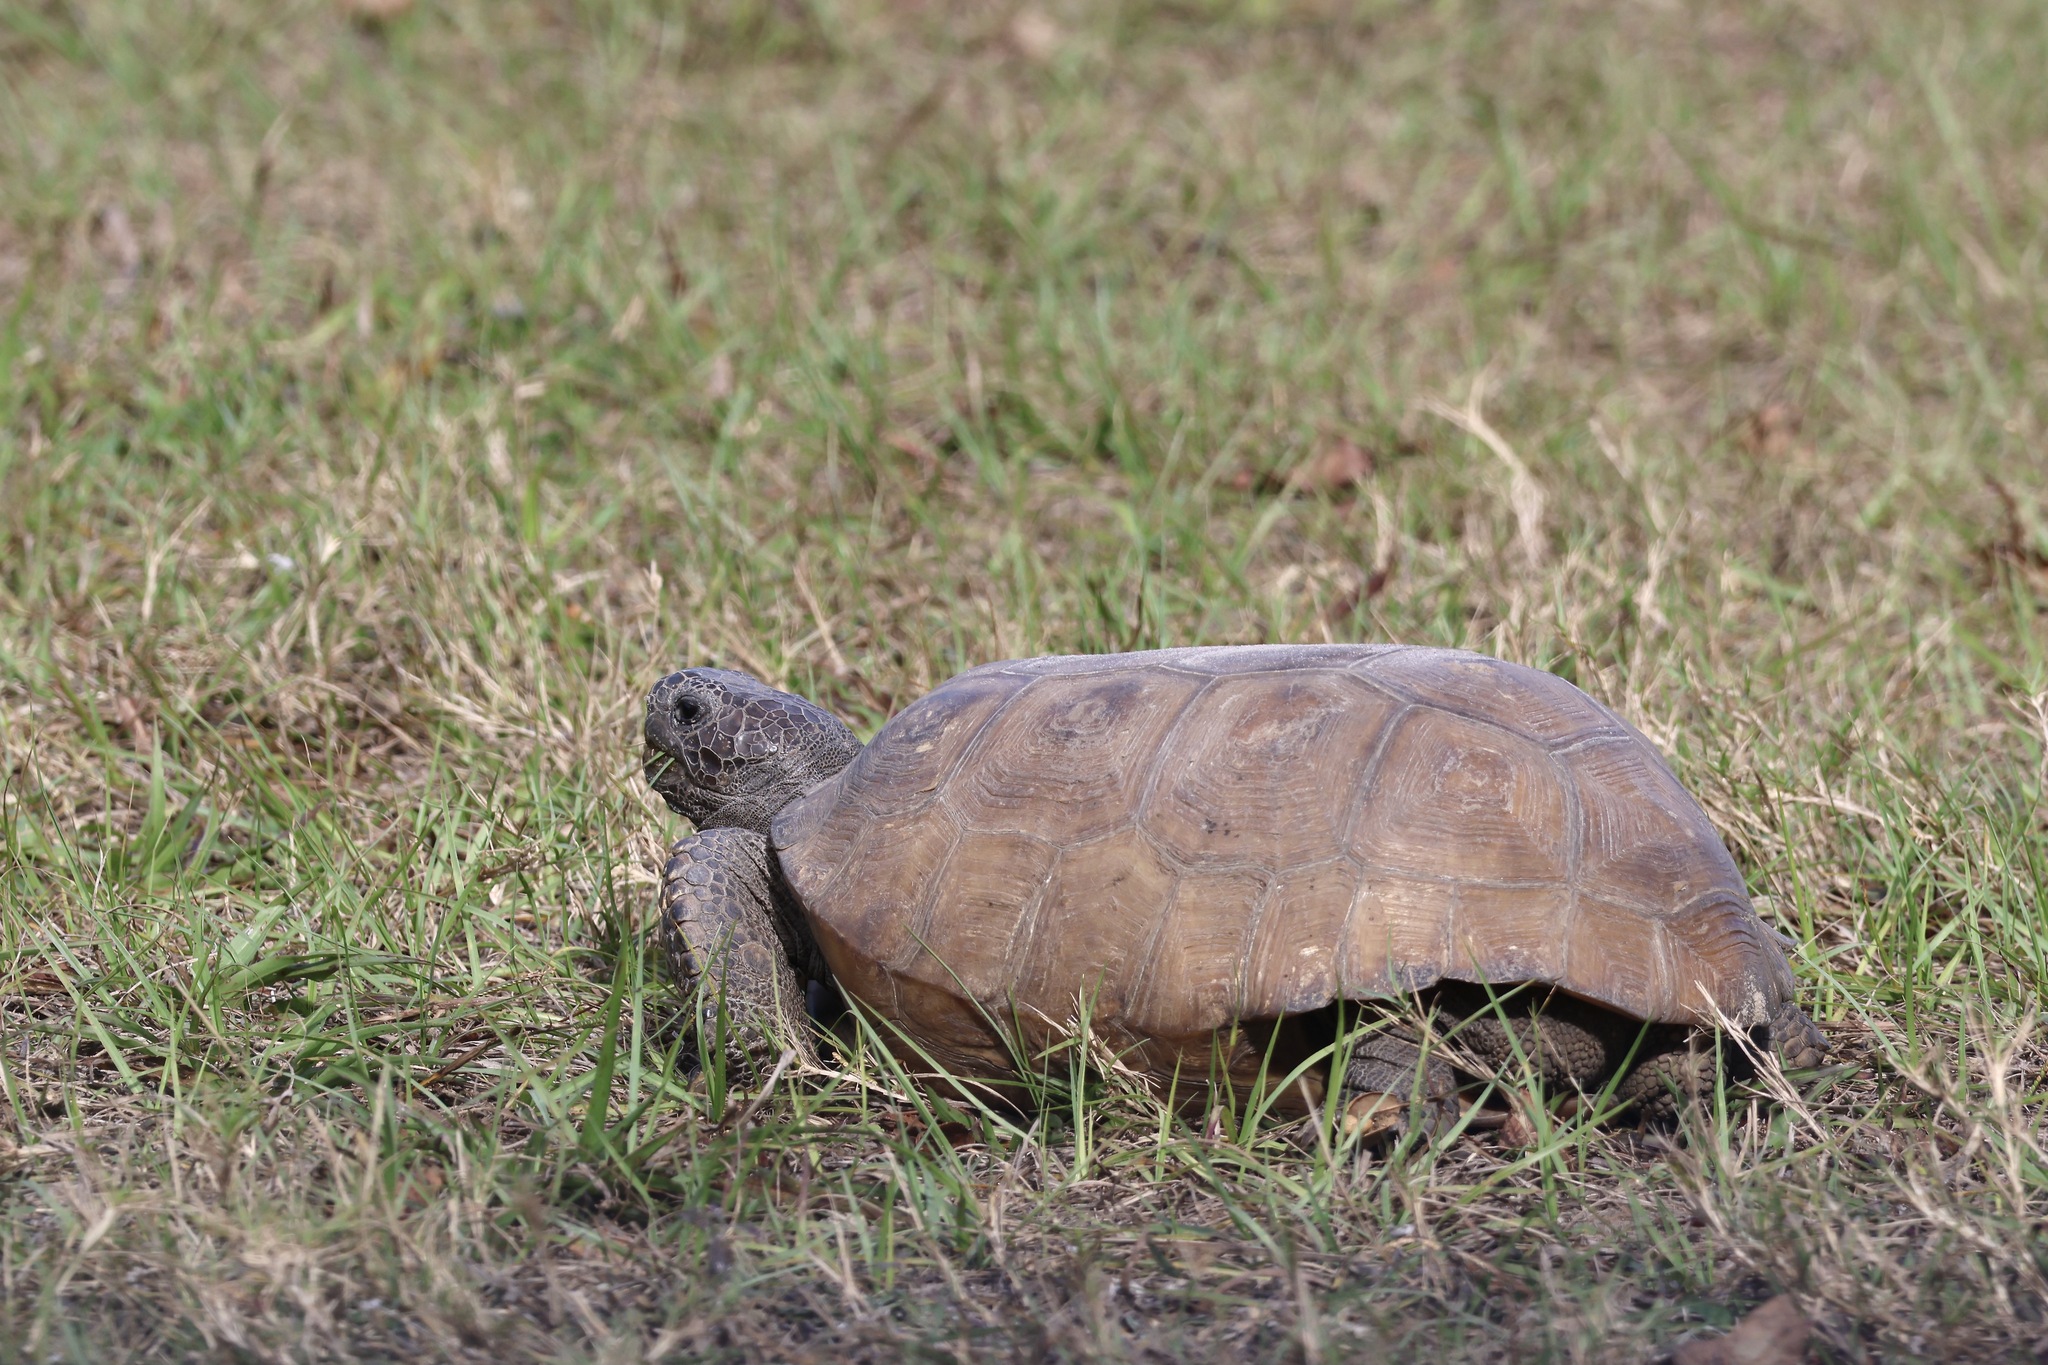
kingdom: Animalia
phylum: Chordata
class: Testudines
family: Testudinidae
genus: Gopherus
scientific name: Gopherus polyphemus
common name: Florida gopher tortoise
